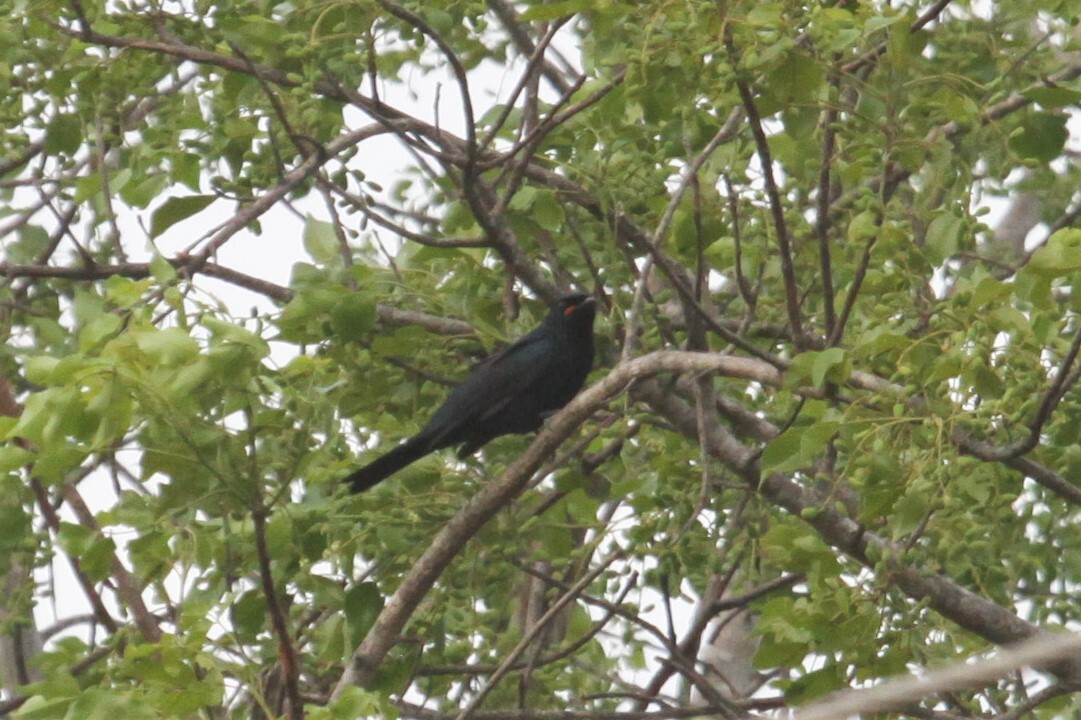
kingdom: Animalia
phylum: Chordata
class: Aves
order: Passeriformes
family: Campephagidae
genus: Campephaga
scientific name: Campephaga flava
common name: Black cuckooshrike
